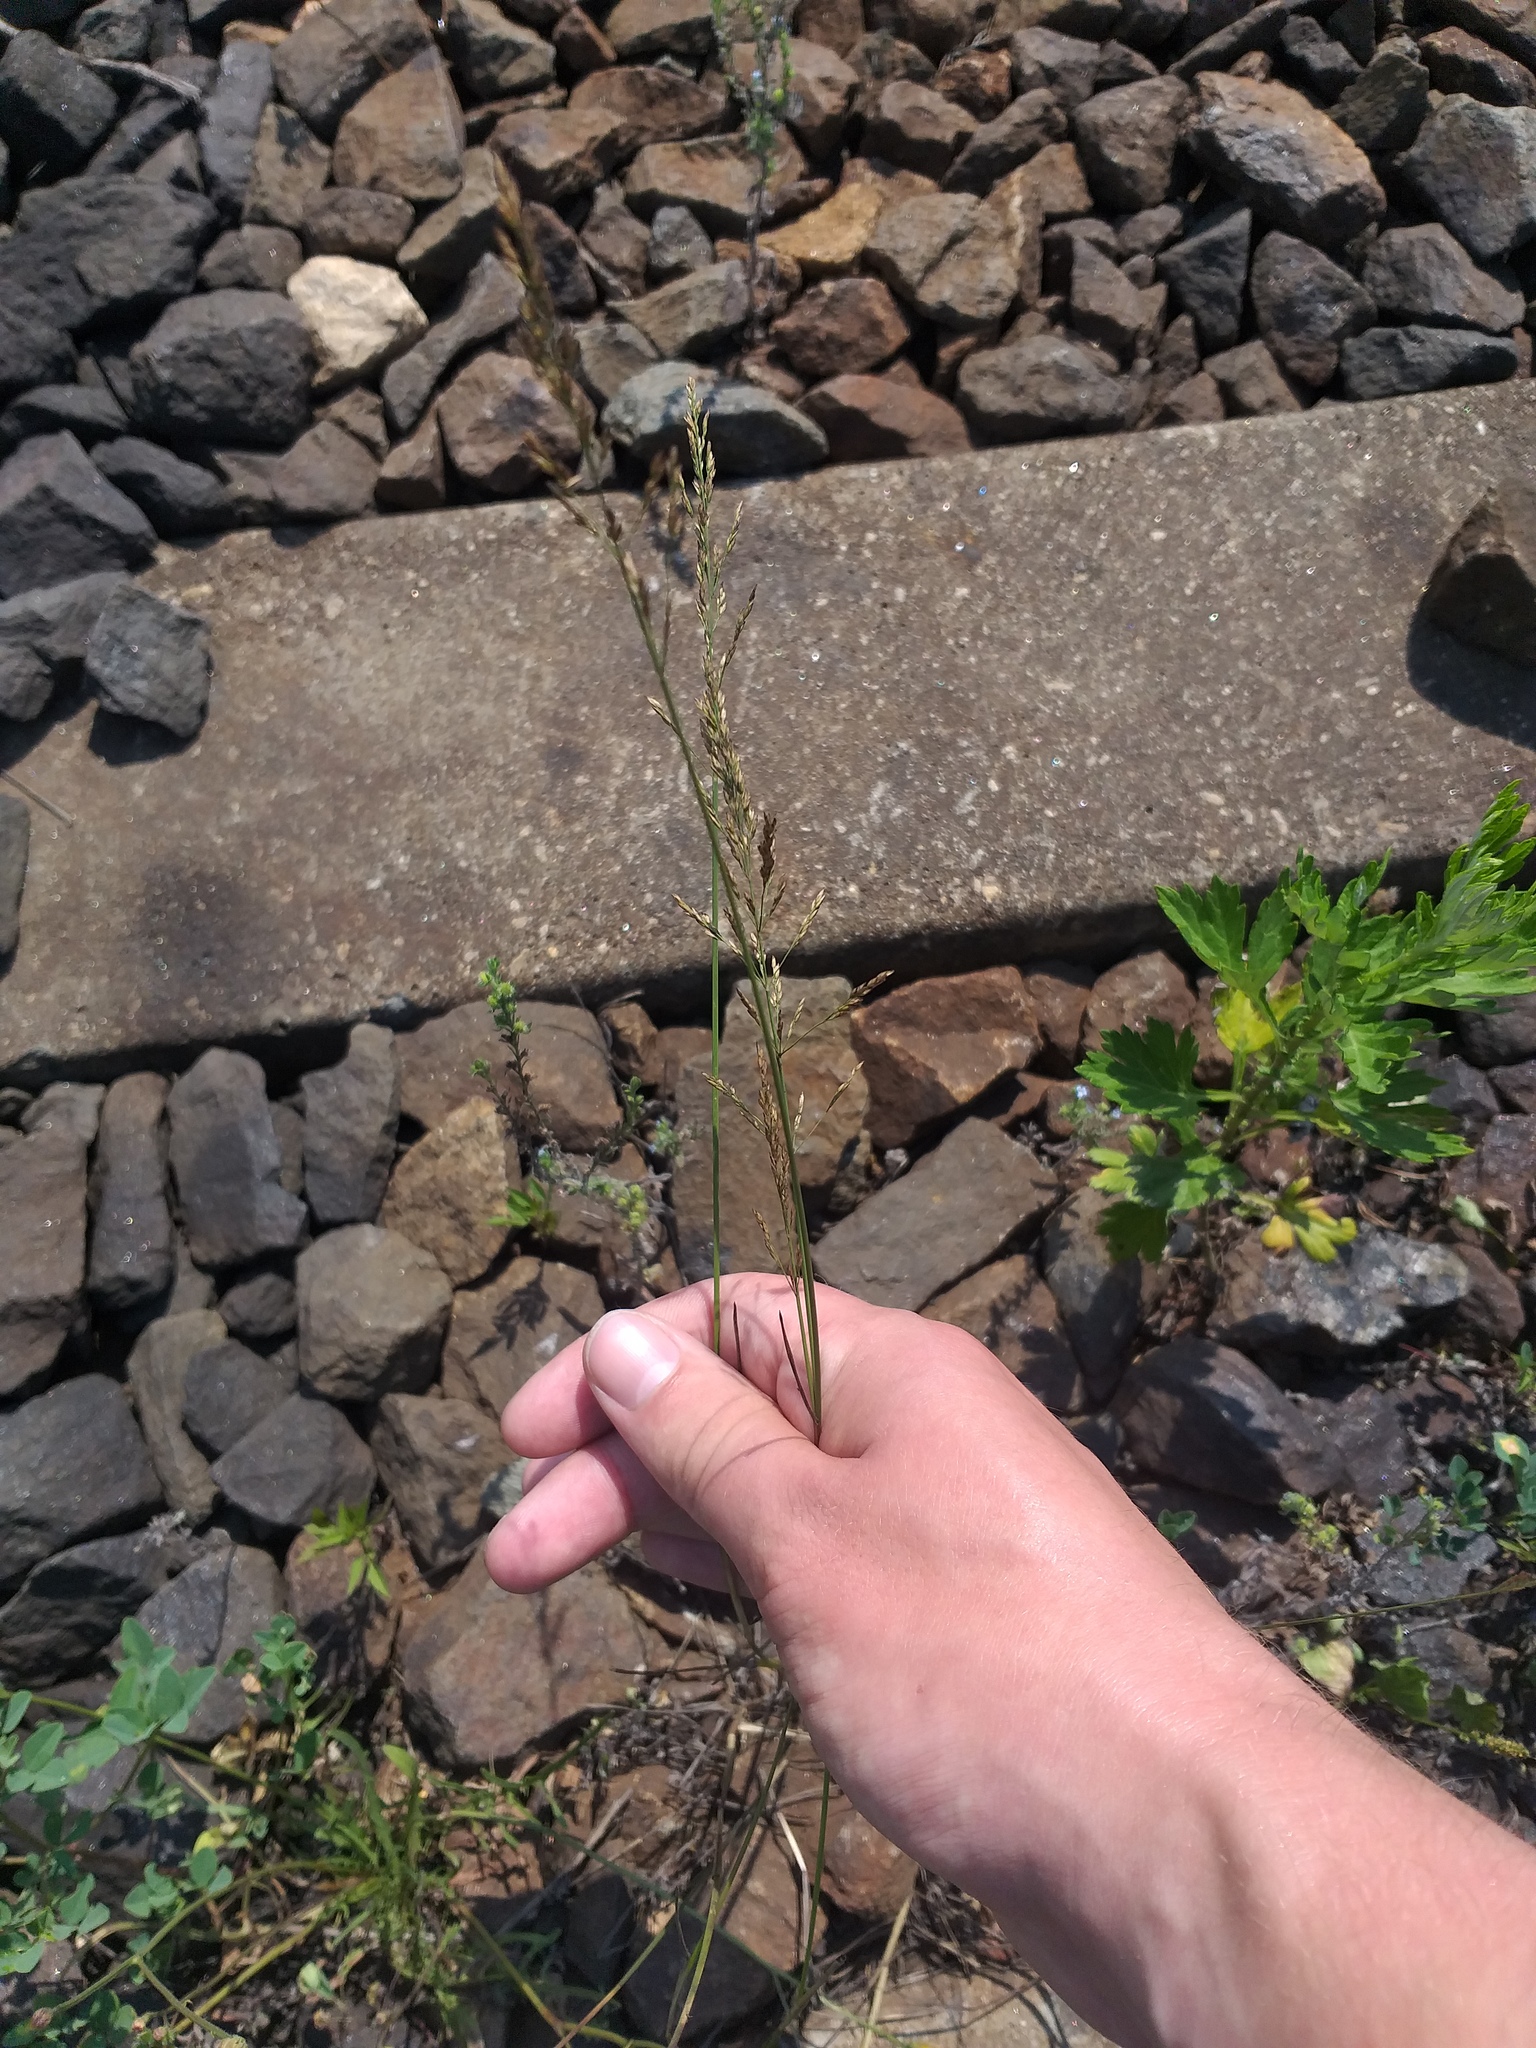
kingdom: Plantae
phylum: Tracheophyta
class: Liliopsida
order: Poales
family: Poaceae
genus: Poa
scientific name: Poa compressa
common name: Canada bluegrass
